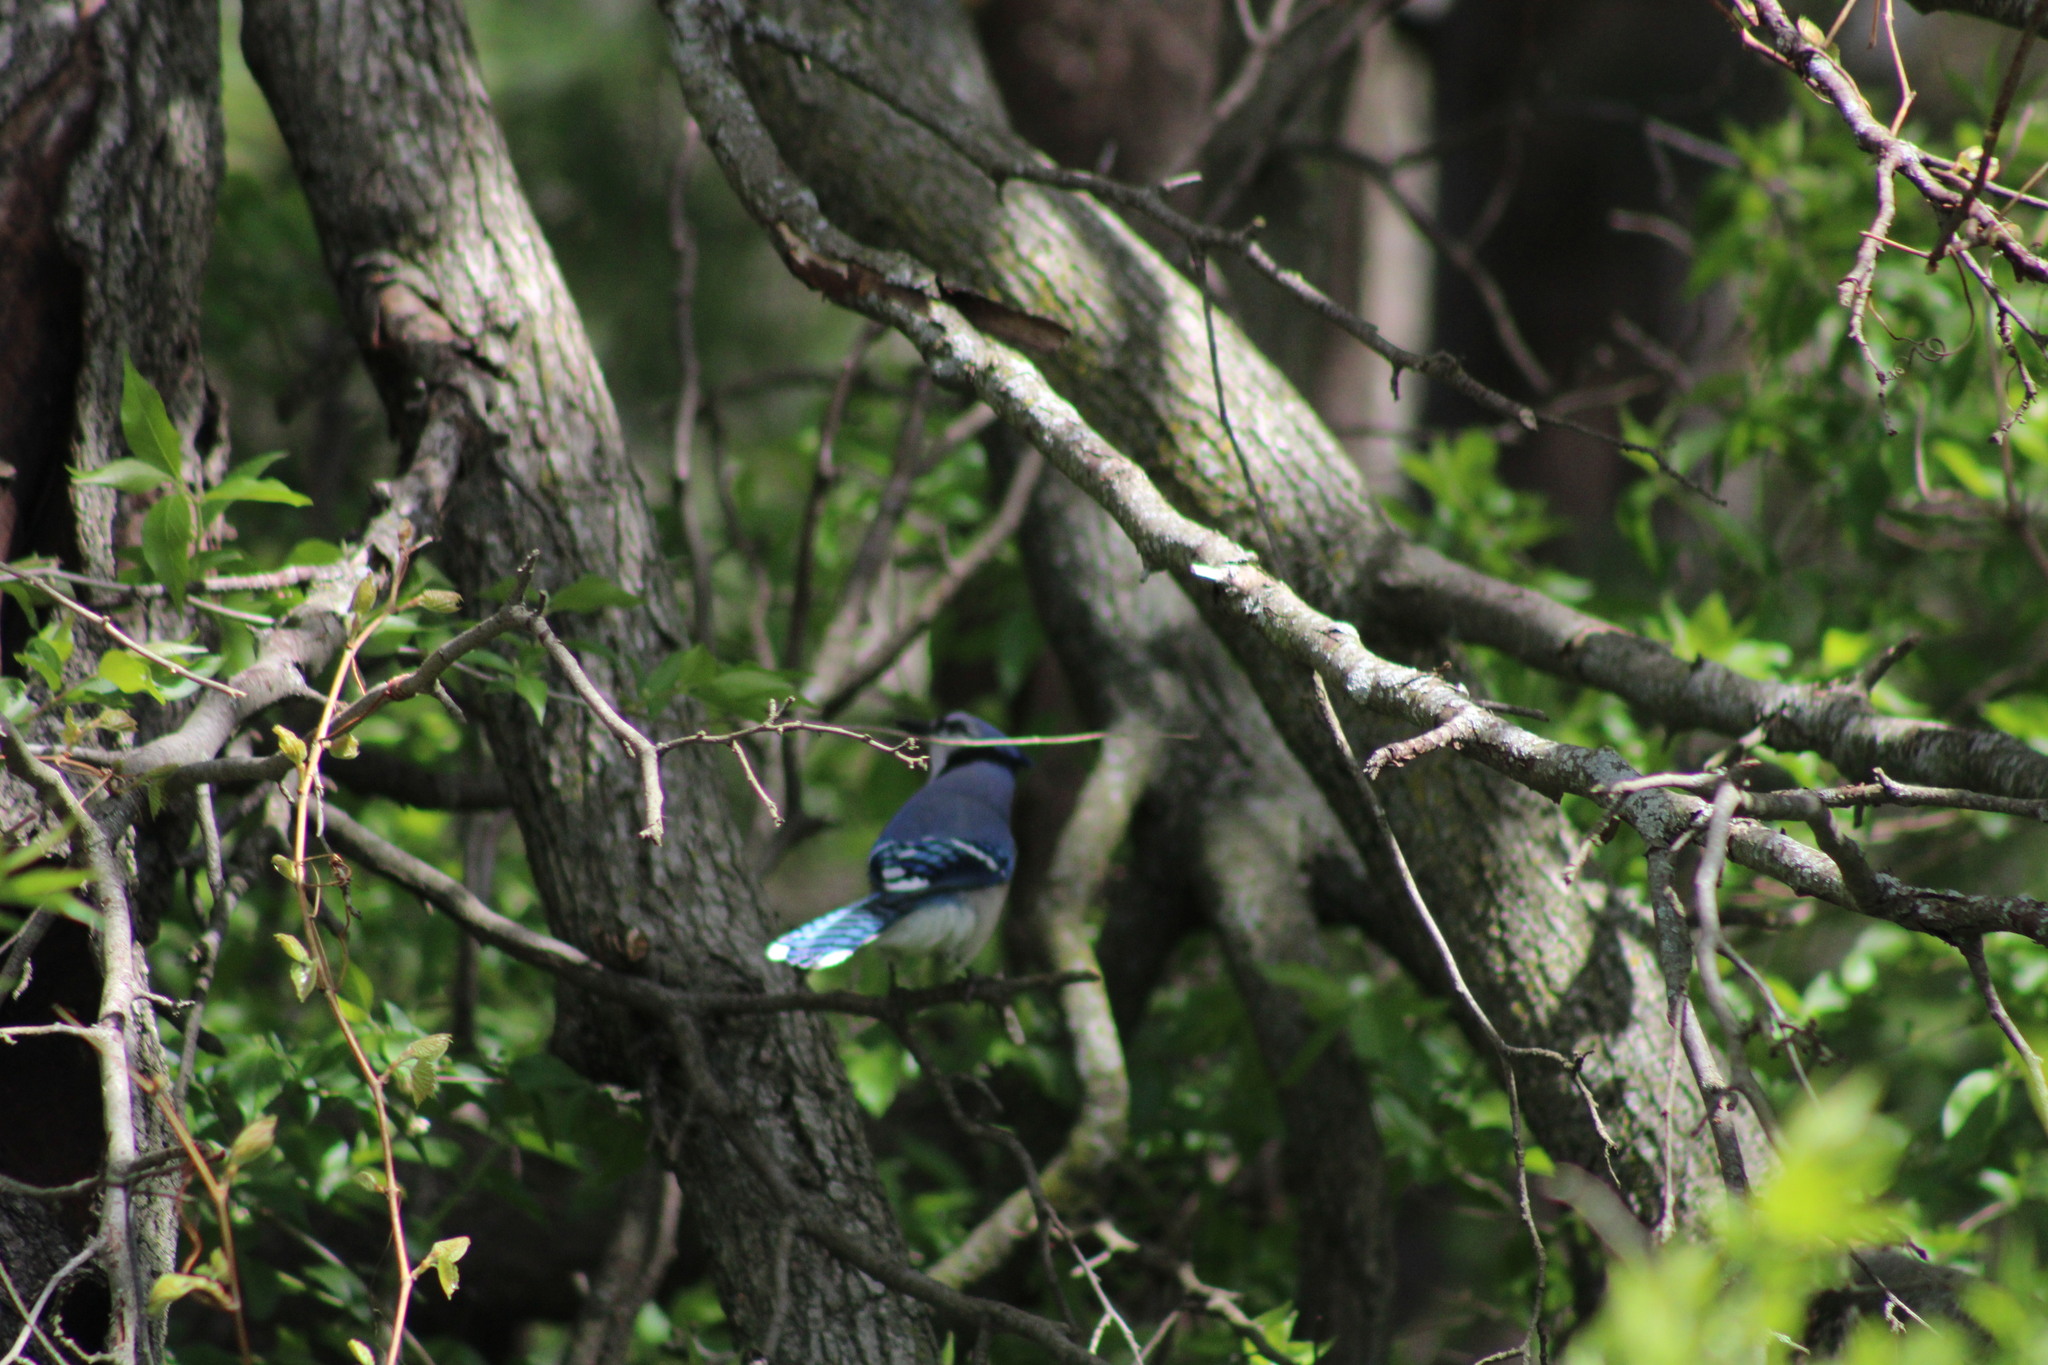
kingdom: Animalia
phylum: Chordata
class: Aves
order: Passeriformes
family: Corvidae
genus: Cyanocitta
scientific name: Cyanocitta cristata
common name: Blue jay
